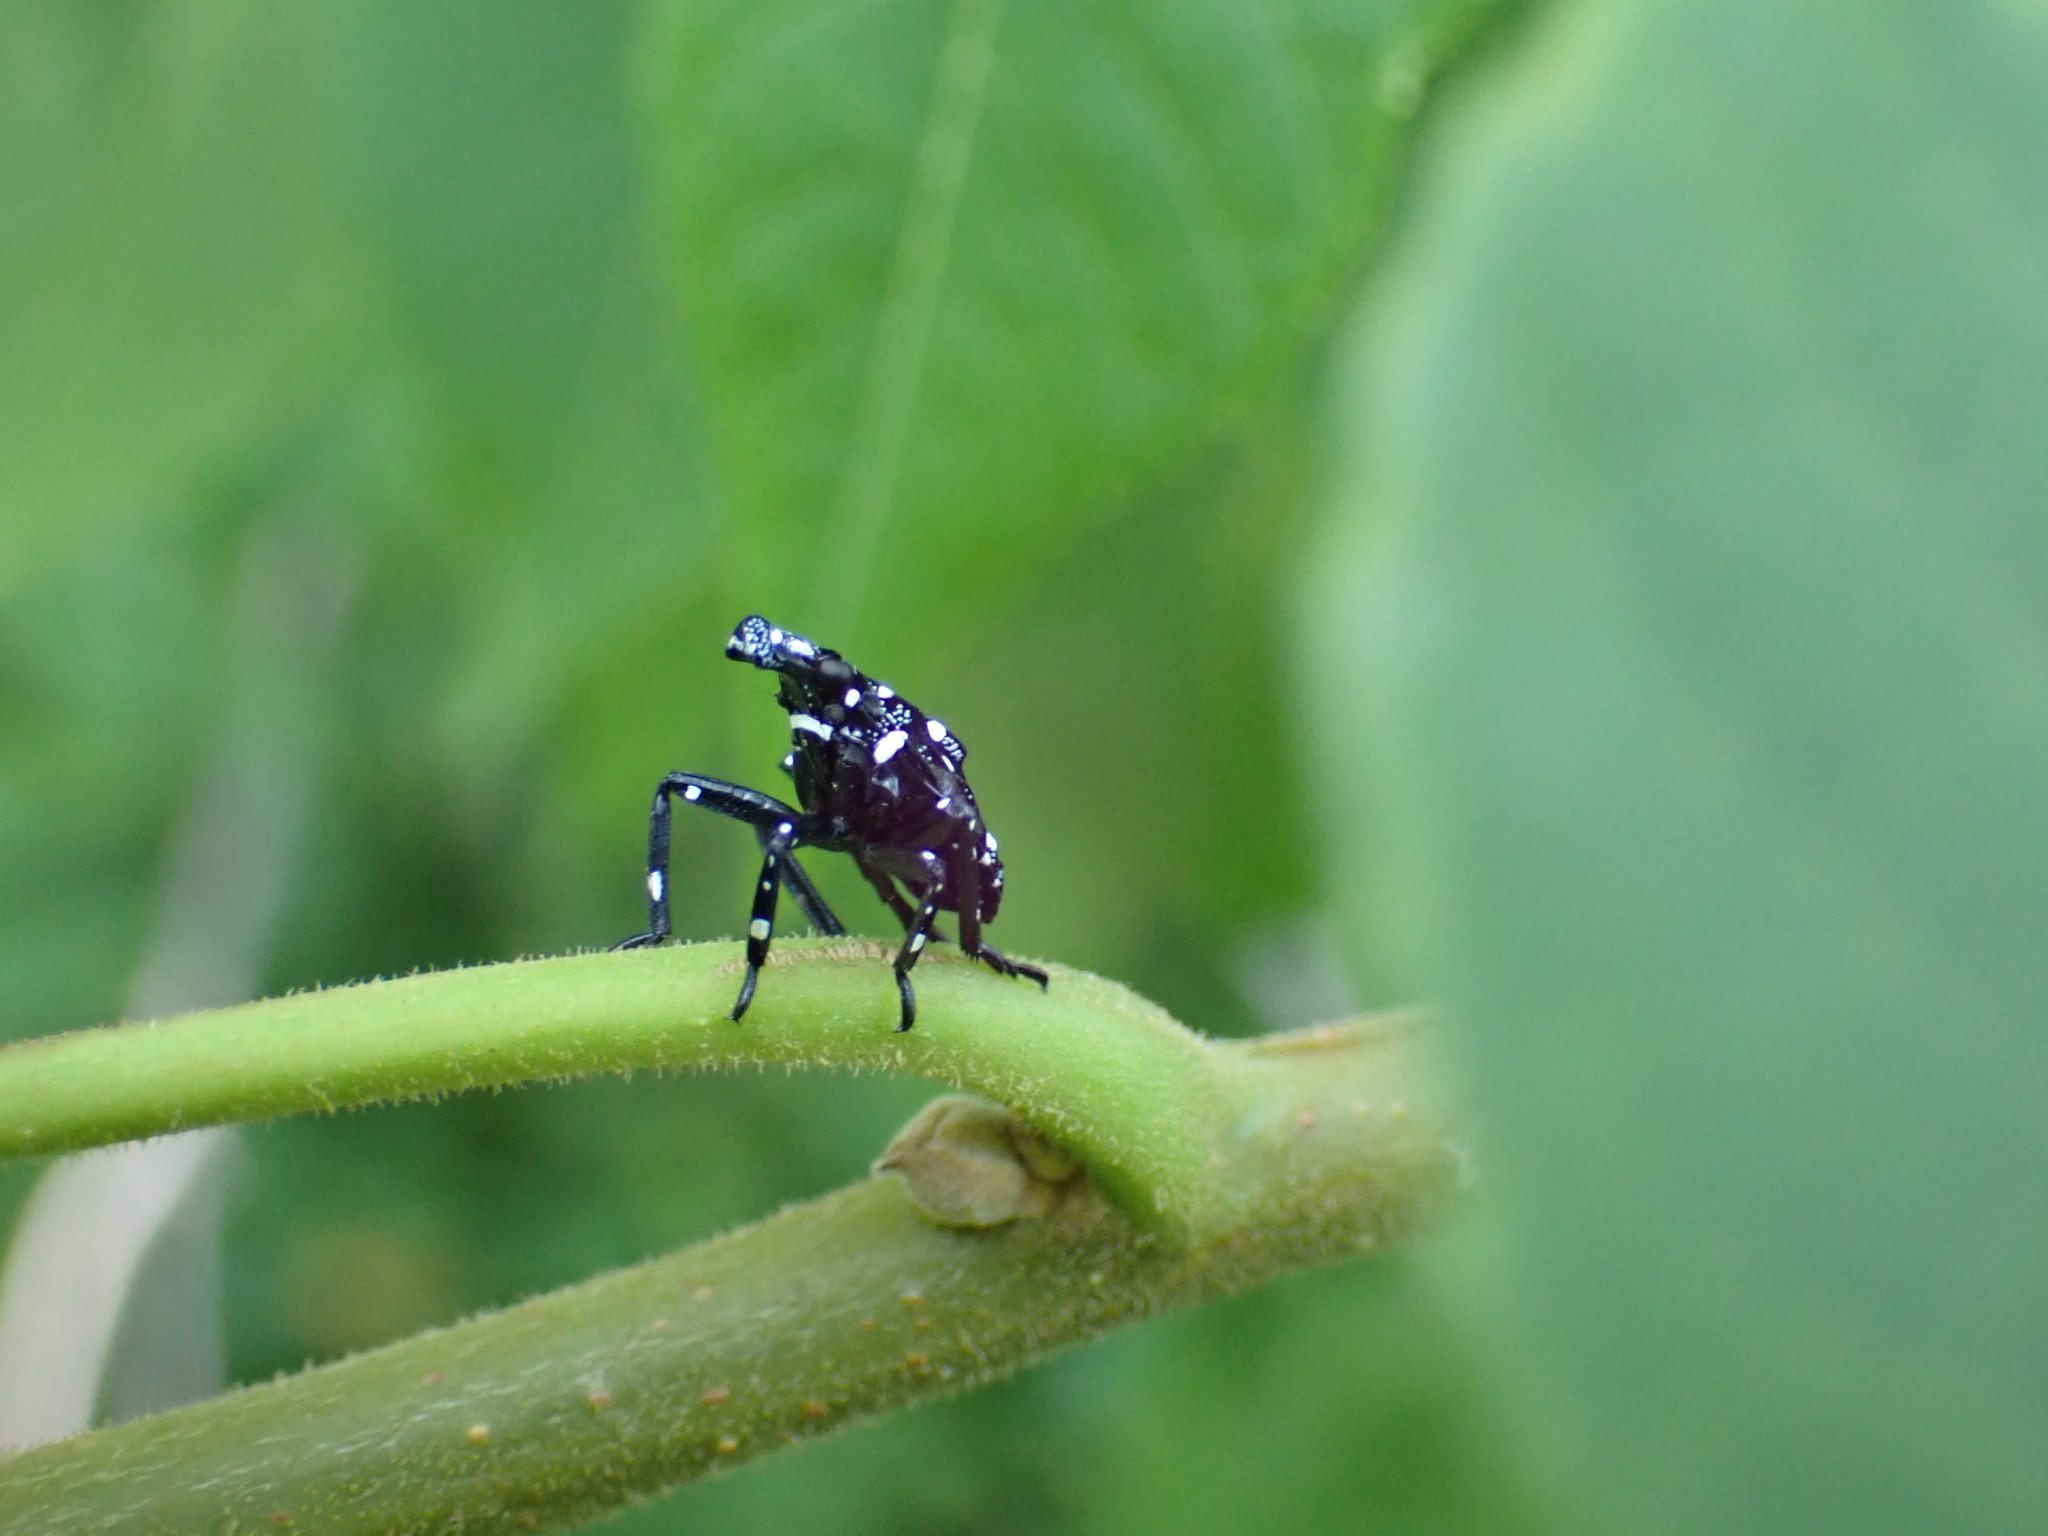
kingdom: Animalia
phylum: Arthropoda
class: Insecta
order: Hemiptera
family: Fulgoridae
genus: Lycorma
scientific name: Lycorma delicatula
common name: Spotted lanternfly
